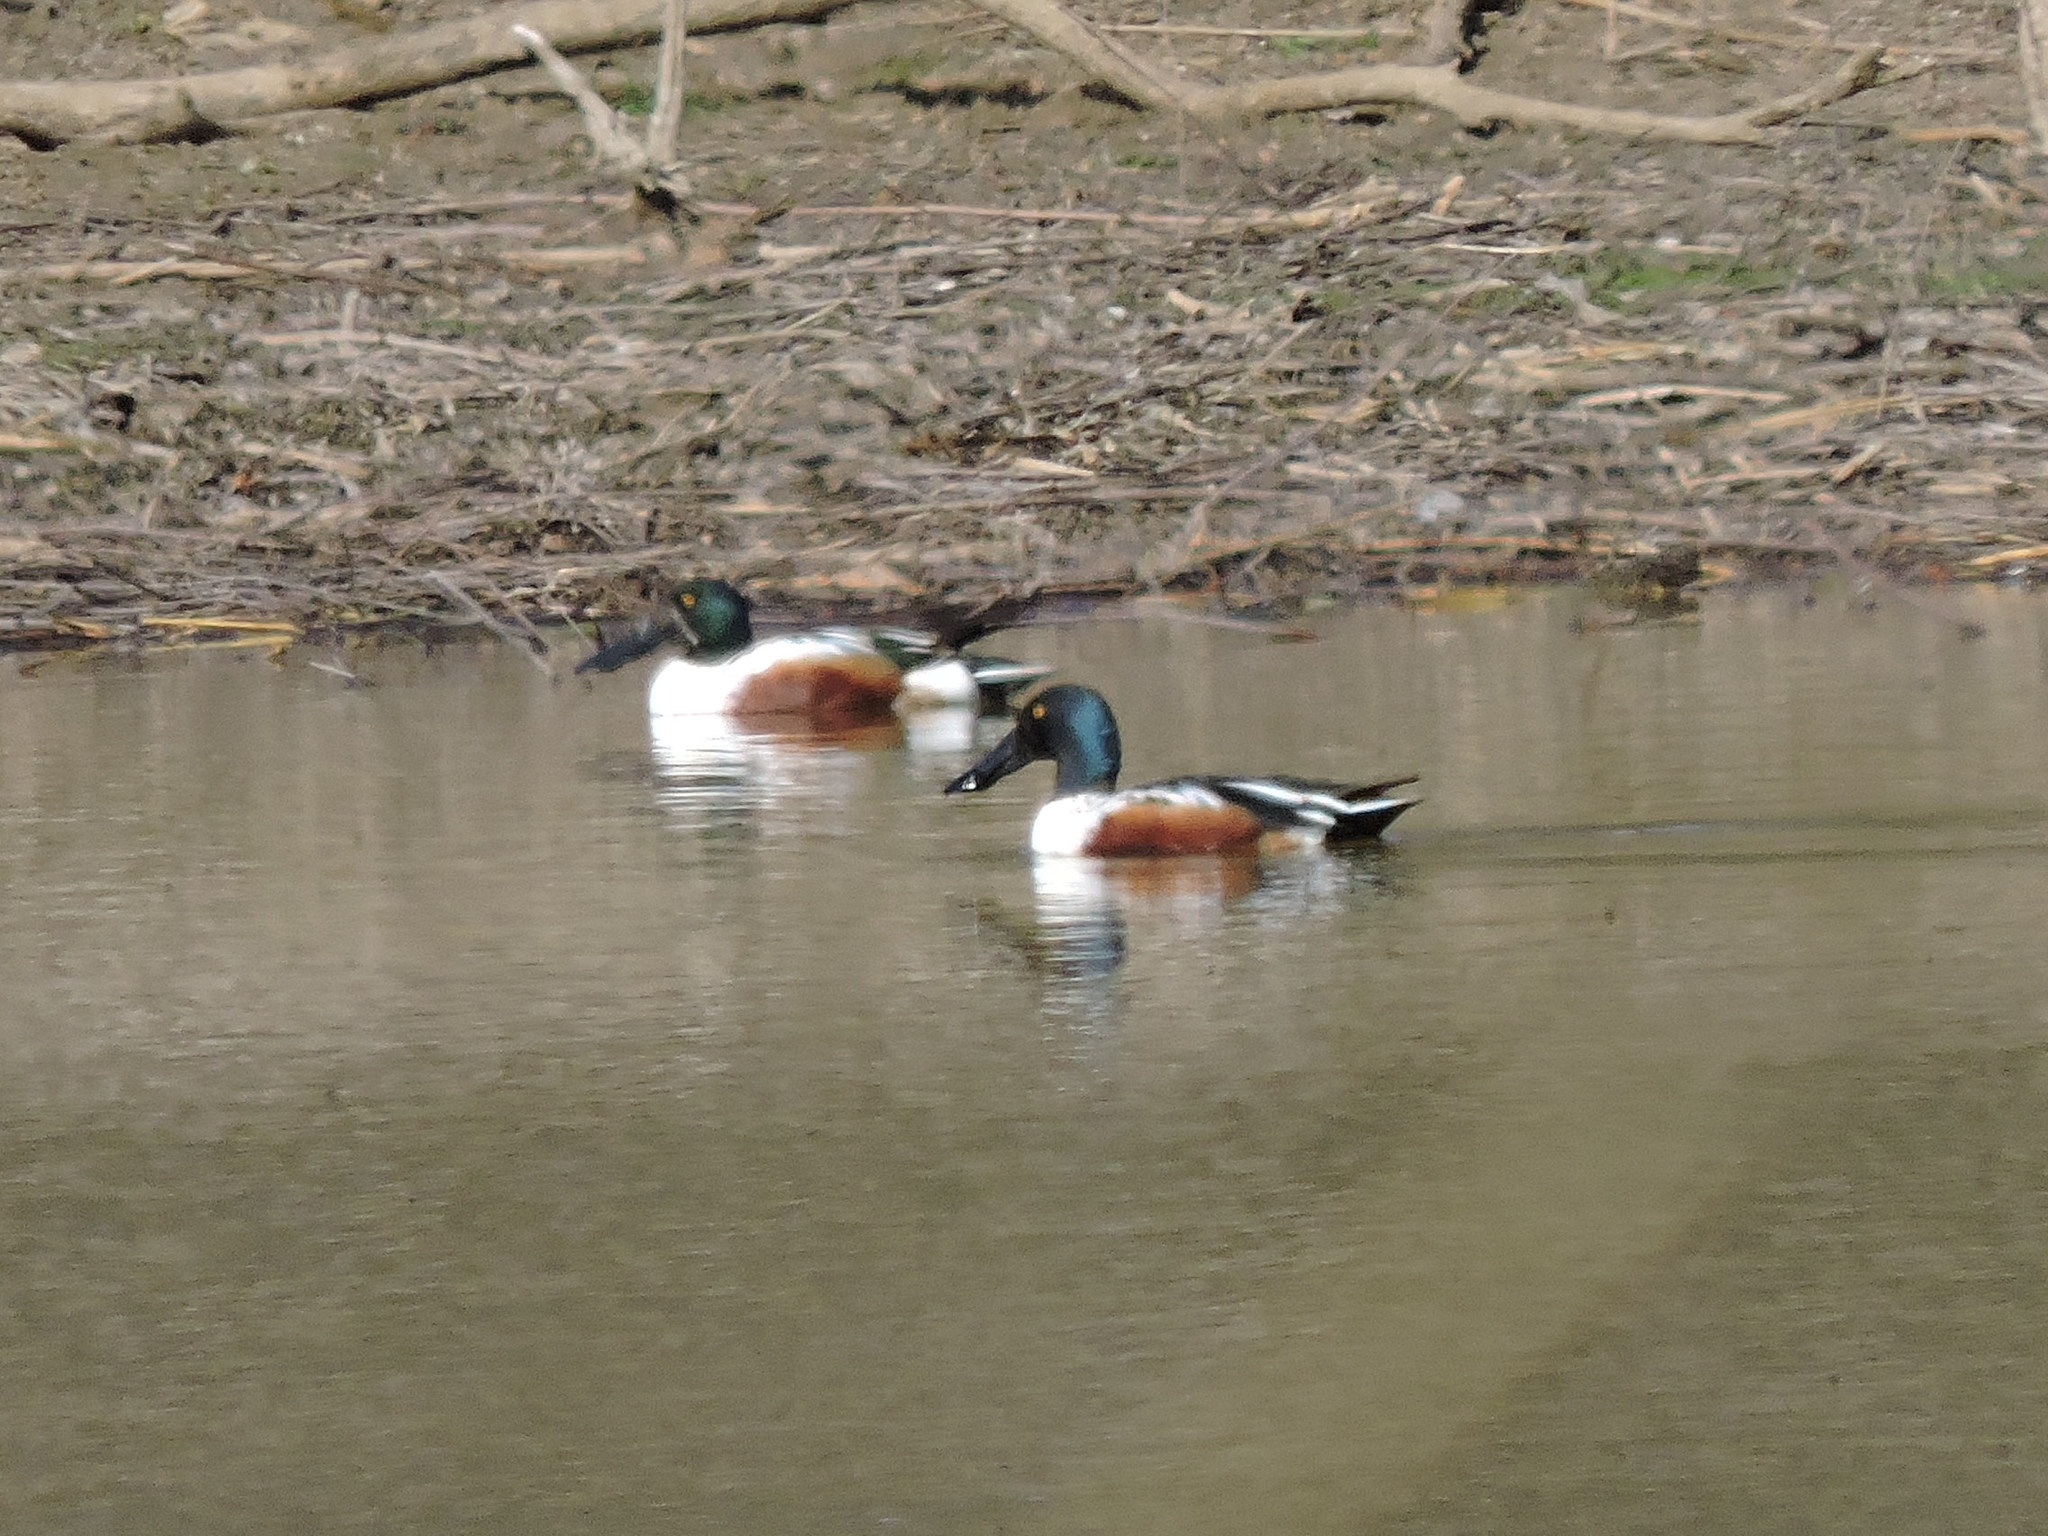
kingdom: Animalia
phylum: Chordata
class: Aves
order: Anseriformes
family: Anatidae
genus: Spatula
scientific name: Spatula clypeata
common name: Northern shoveler
